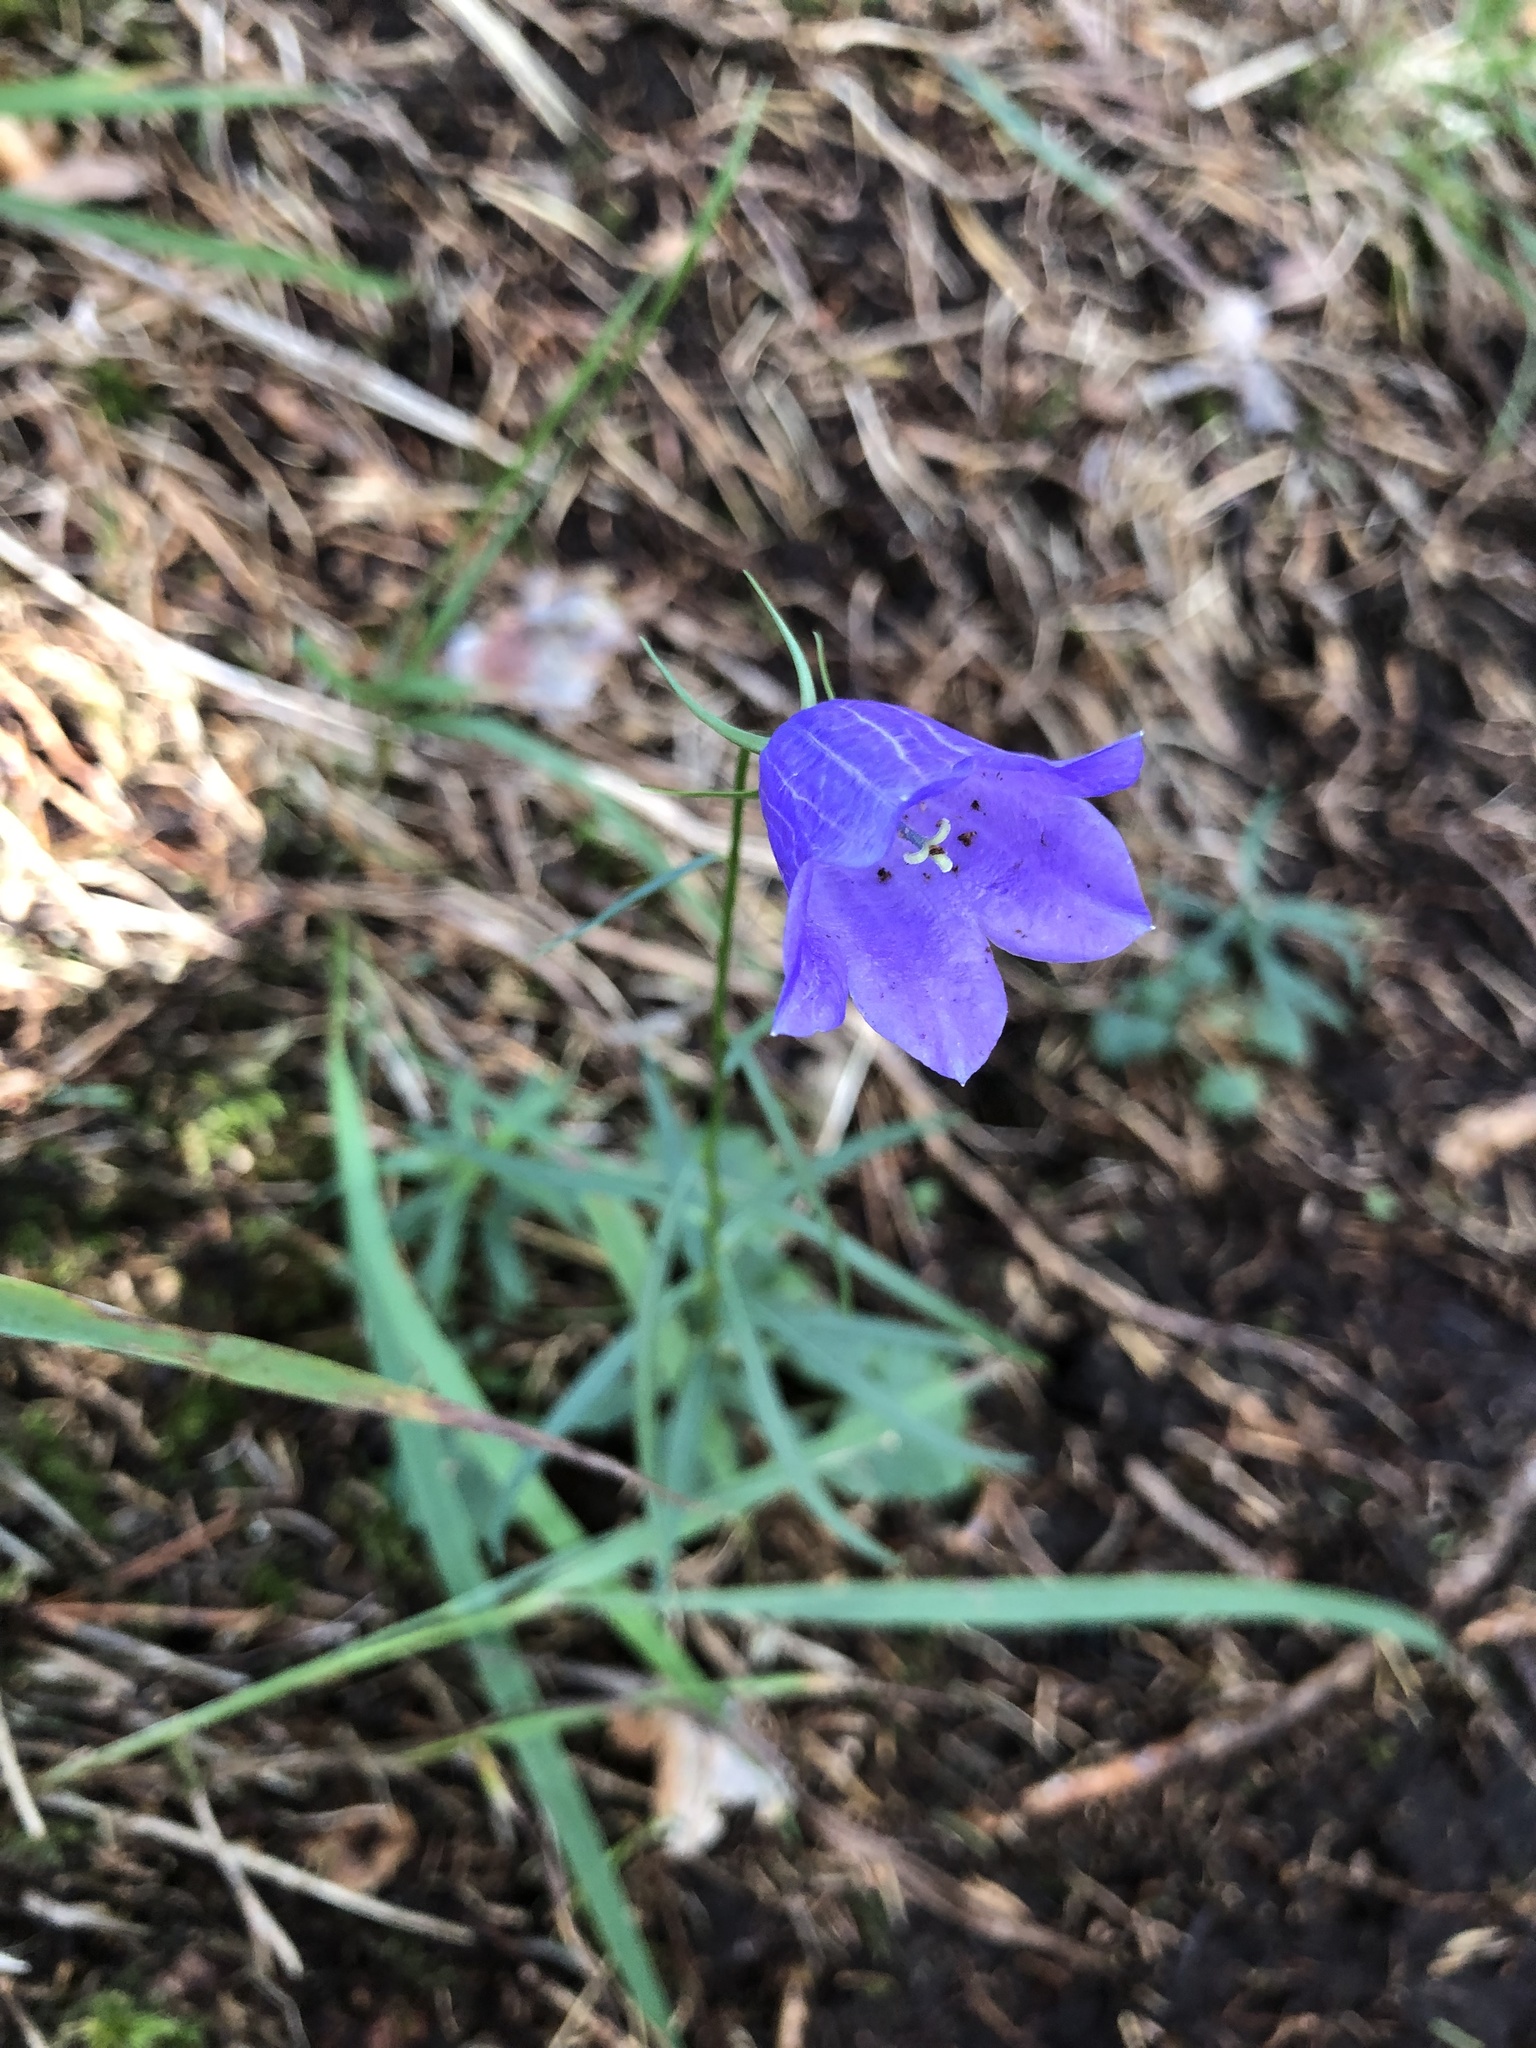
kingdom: Plantae
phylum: Tracheophyta
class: Magnoliopsida
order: Asterales
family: Campanulaceae
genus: Campanula
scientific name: Campanula rotundifolia
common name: Harebell
